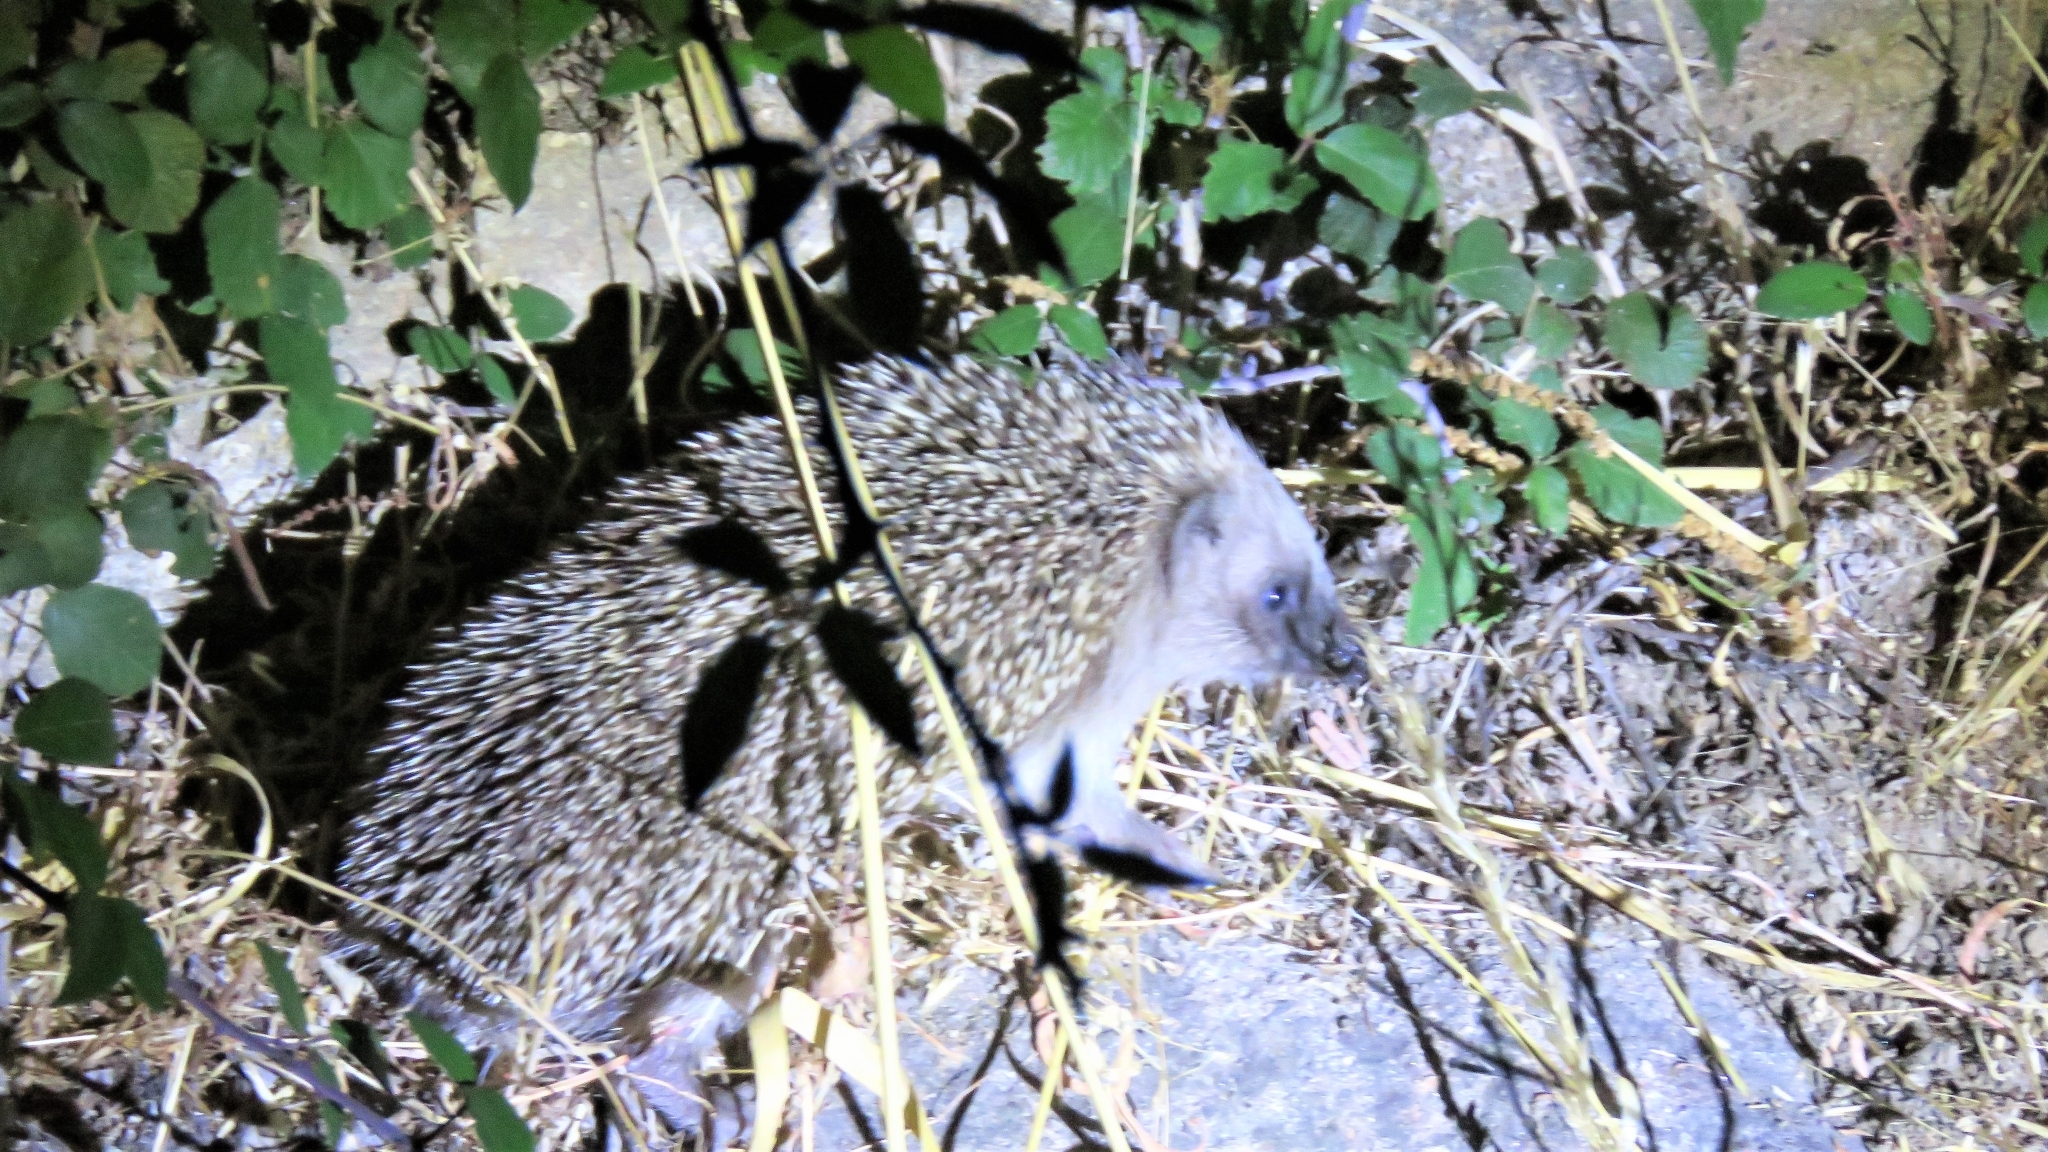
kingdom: Animalia
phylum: Chordata
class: Mammalia
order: Erinaceomorpha
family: Erinaceidae
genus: Erinaceus
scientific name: Erinaceus europaeus
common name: West european hedgehog
